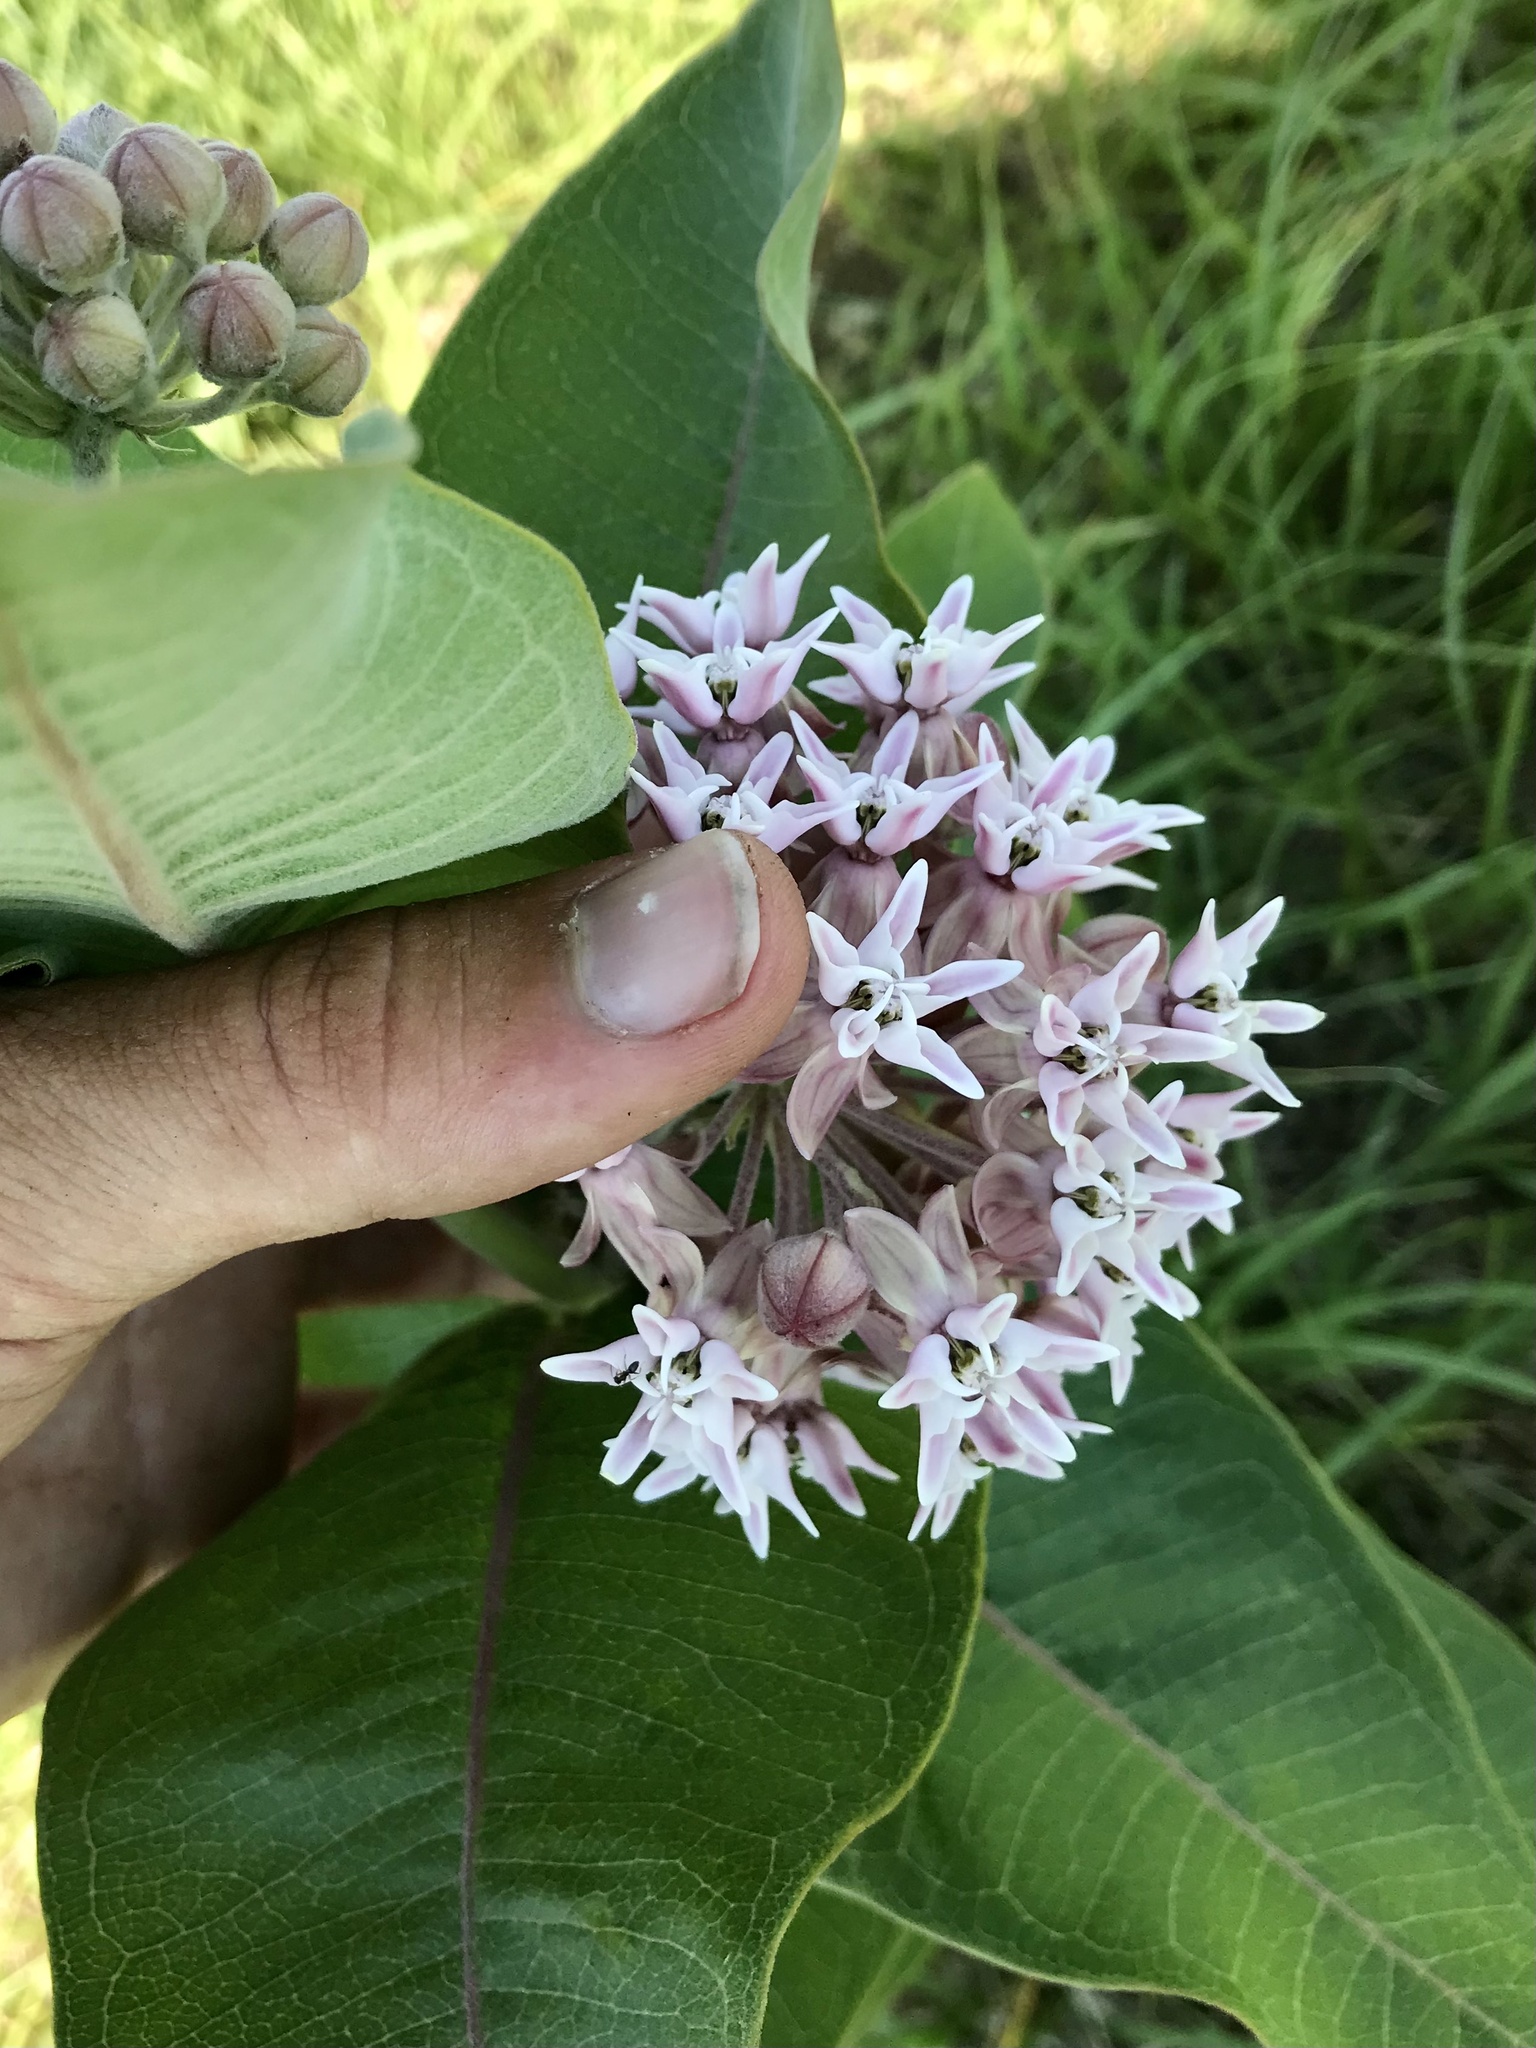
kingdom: Plantae
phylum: Tracheophyta
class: Magnoliopsida
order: Gentianales
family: Apocynaceae
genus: Asclepias
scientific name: Asclepias speciosa
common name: Showy milkweed
